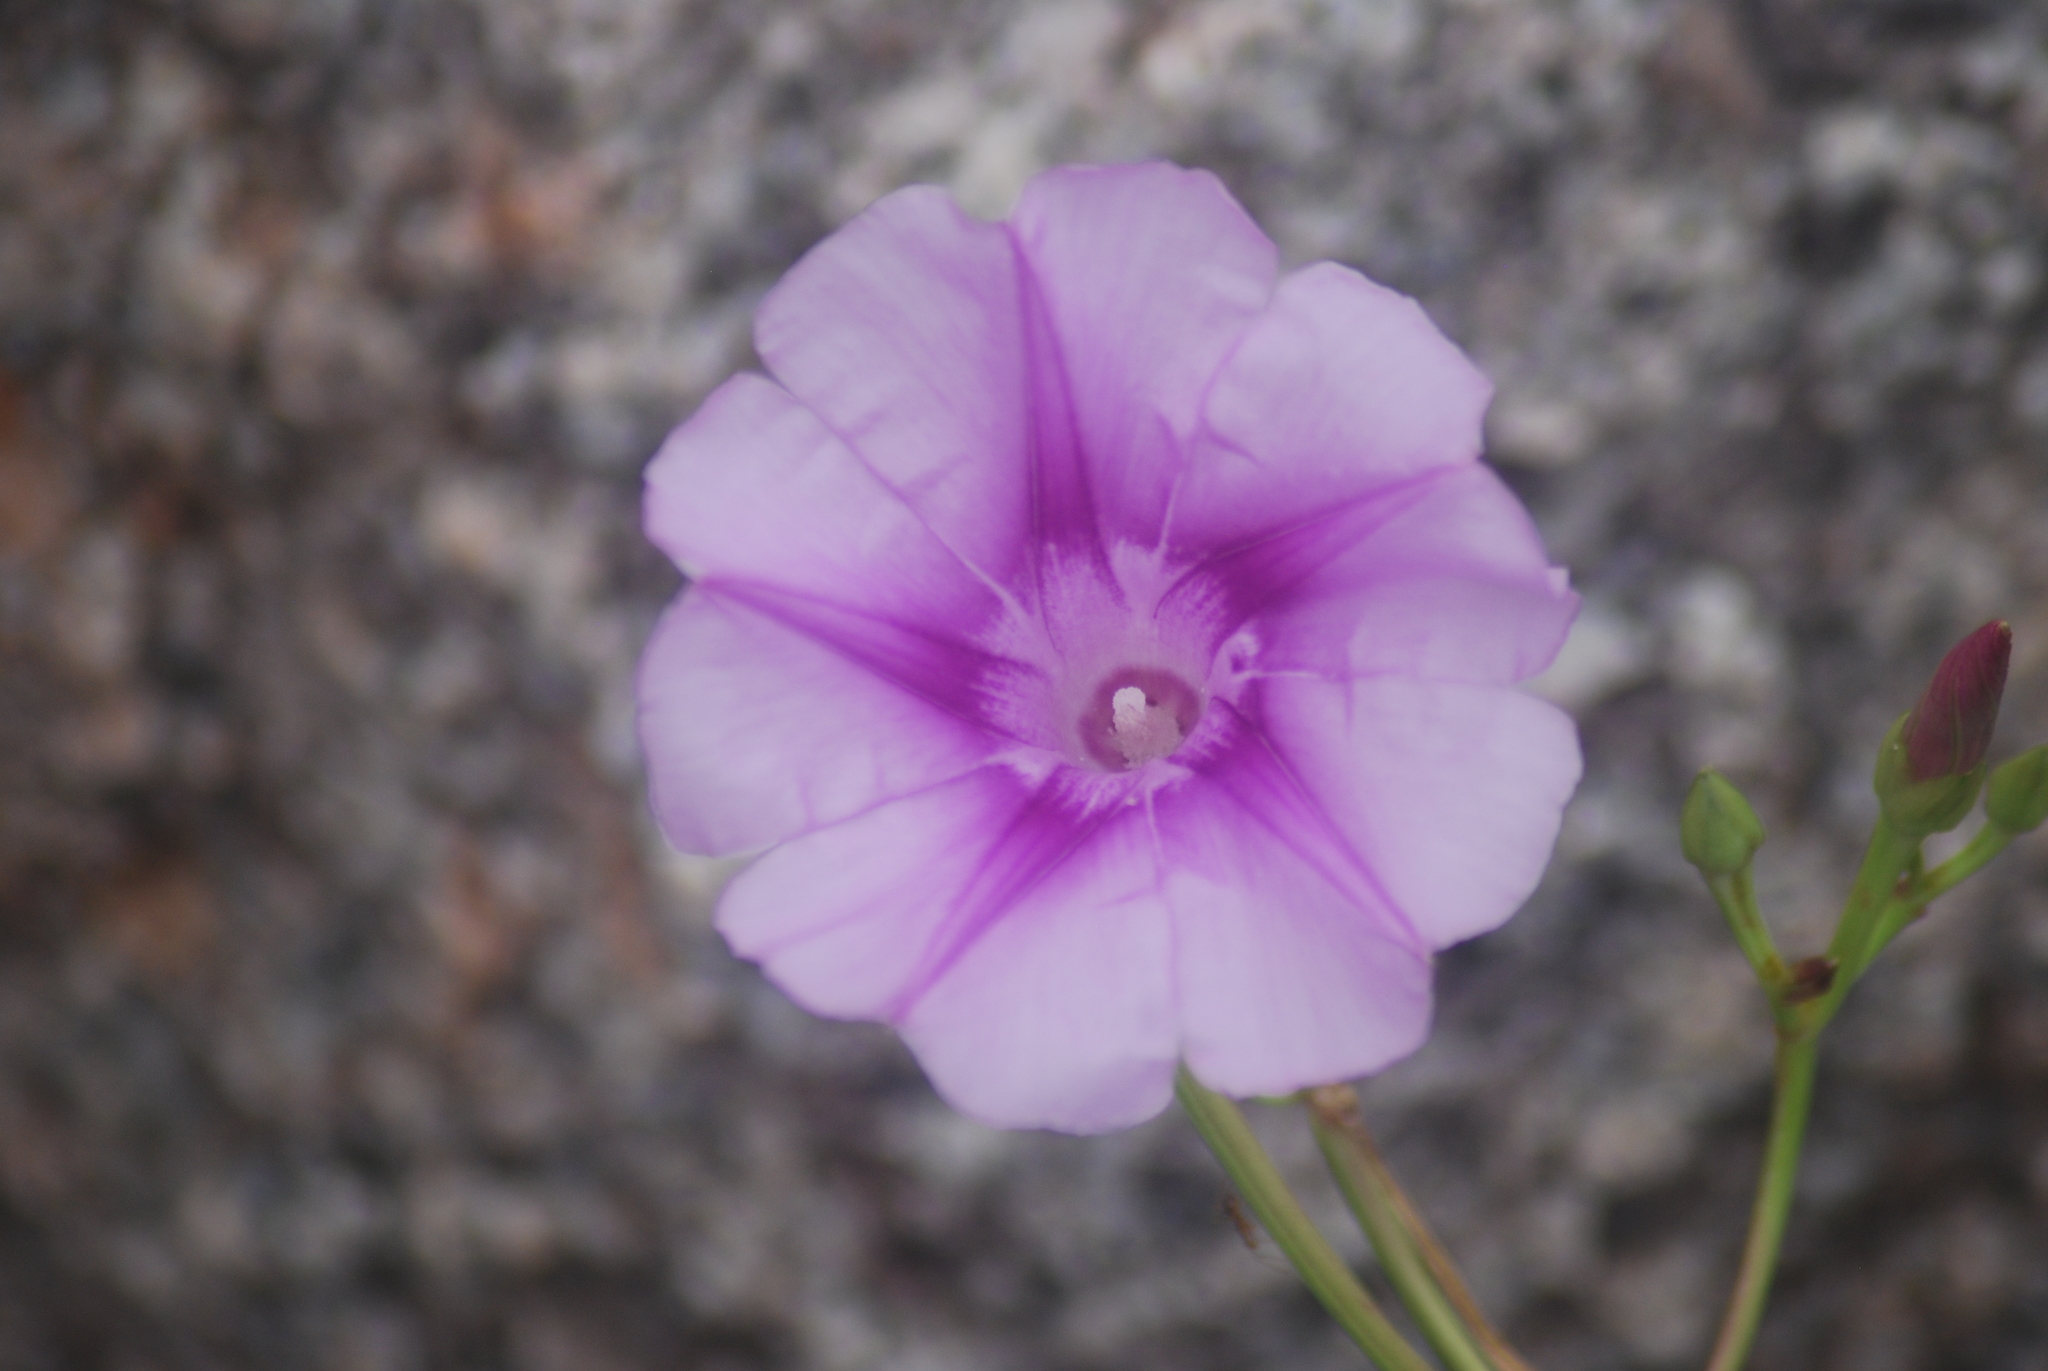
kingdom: Plantae
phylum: Tracheophyta
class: Magnoliopsida
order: Solanales
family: Convolvulaceae
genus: Ipomoea
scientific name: Ipomoea pes-caprae
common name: Beach morning glory
